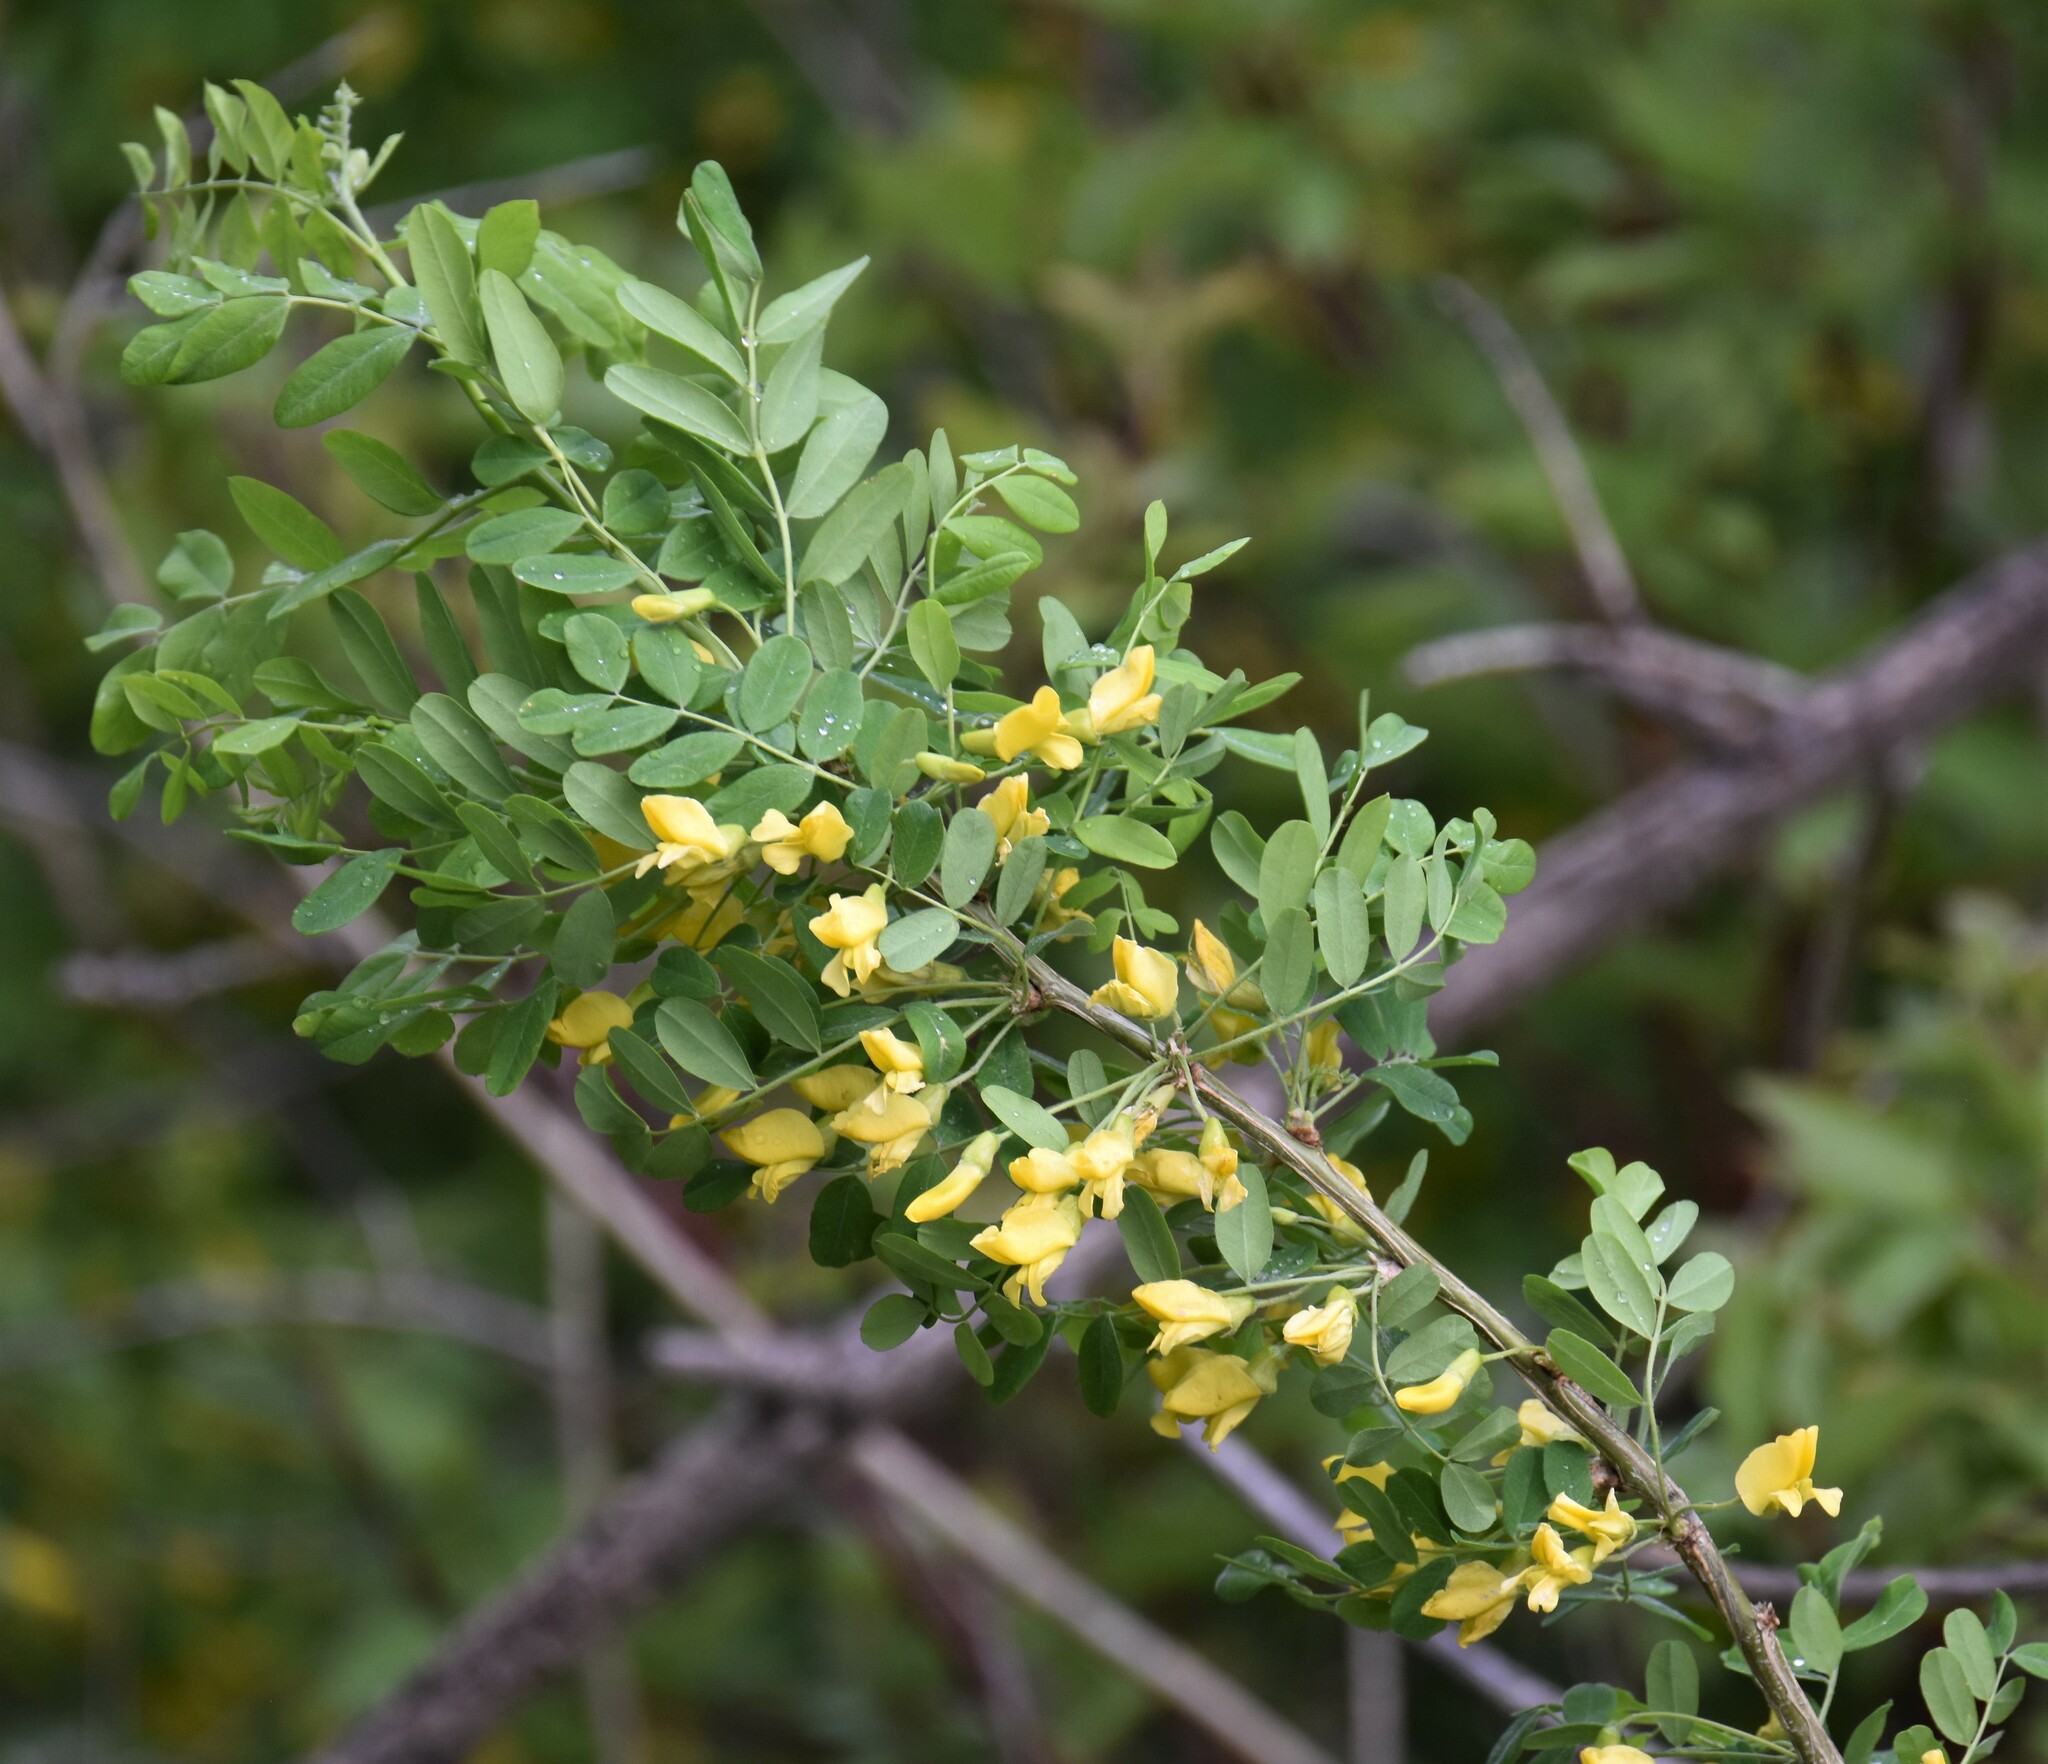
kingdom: Plantae
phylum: Tracheophyta
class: Magnoliopsida
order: Fabales
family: Fabaceae
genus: Caragana
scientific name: Caragana arborescens
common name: Siberian peashrub
